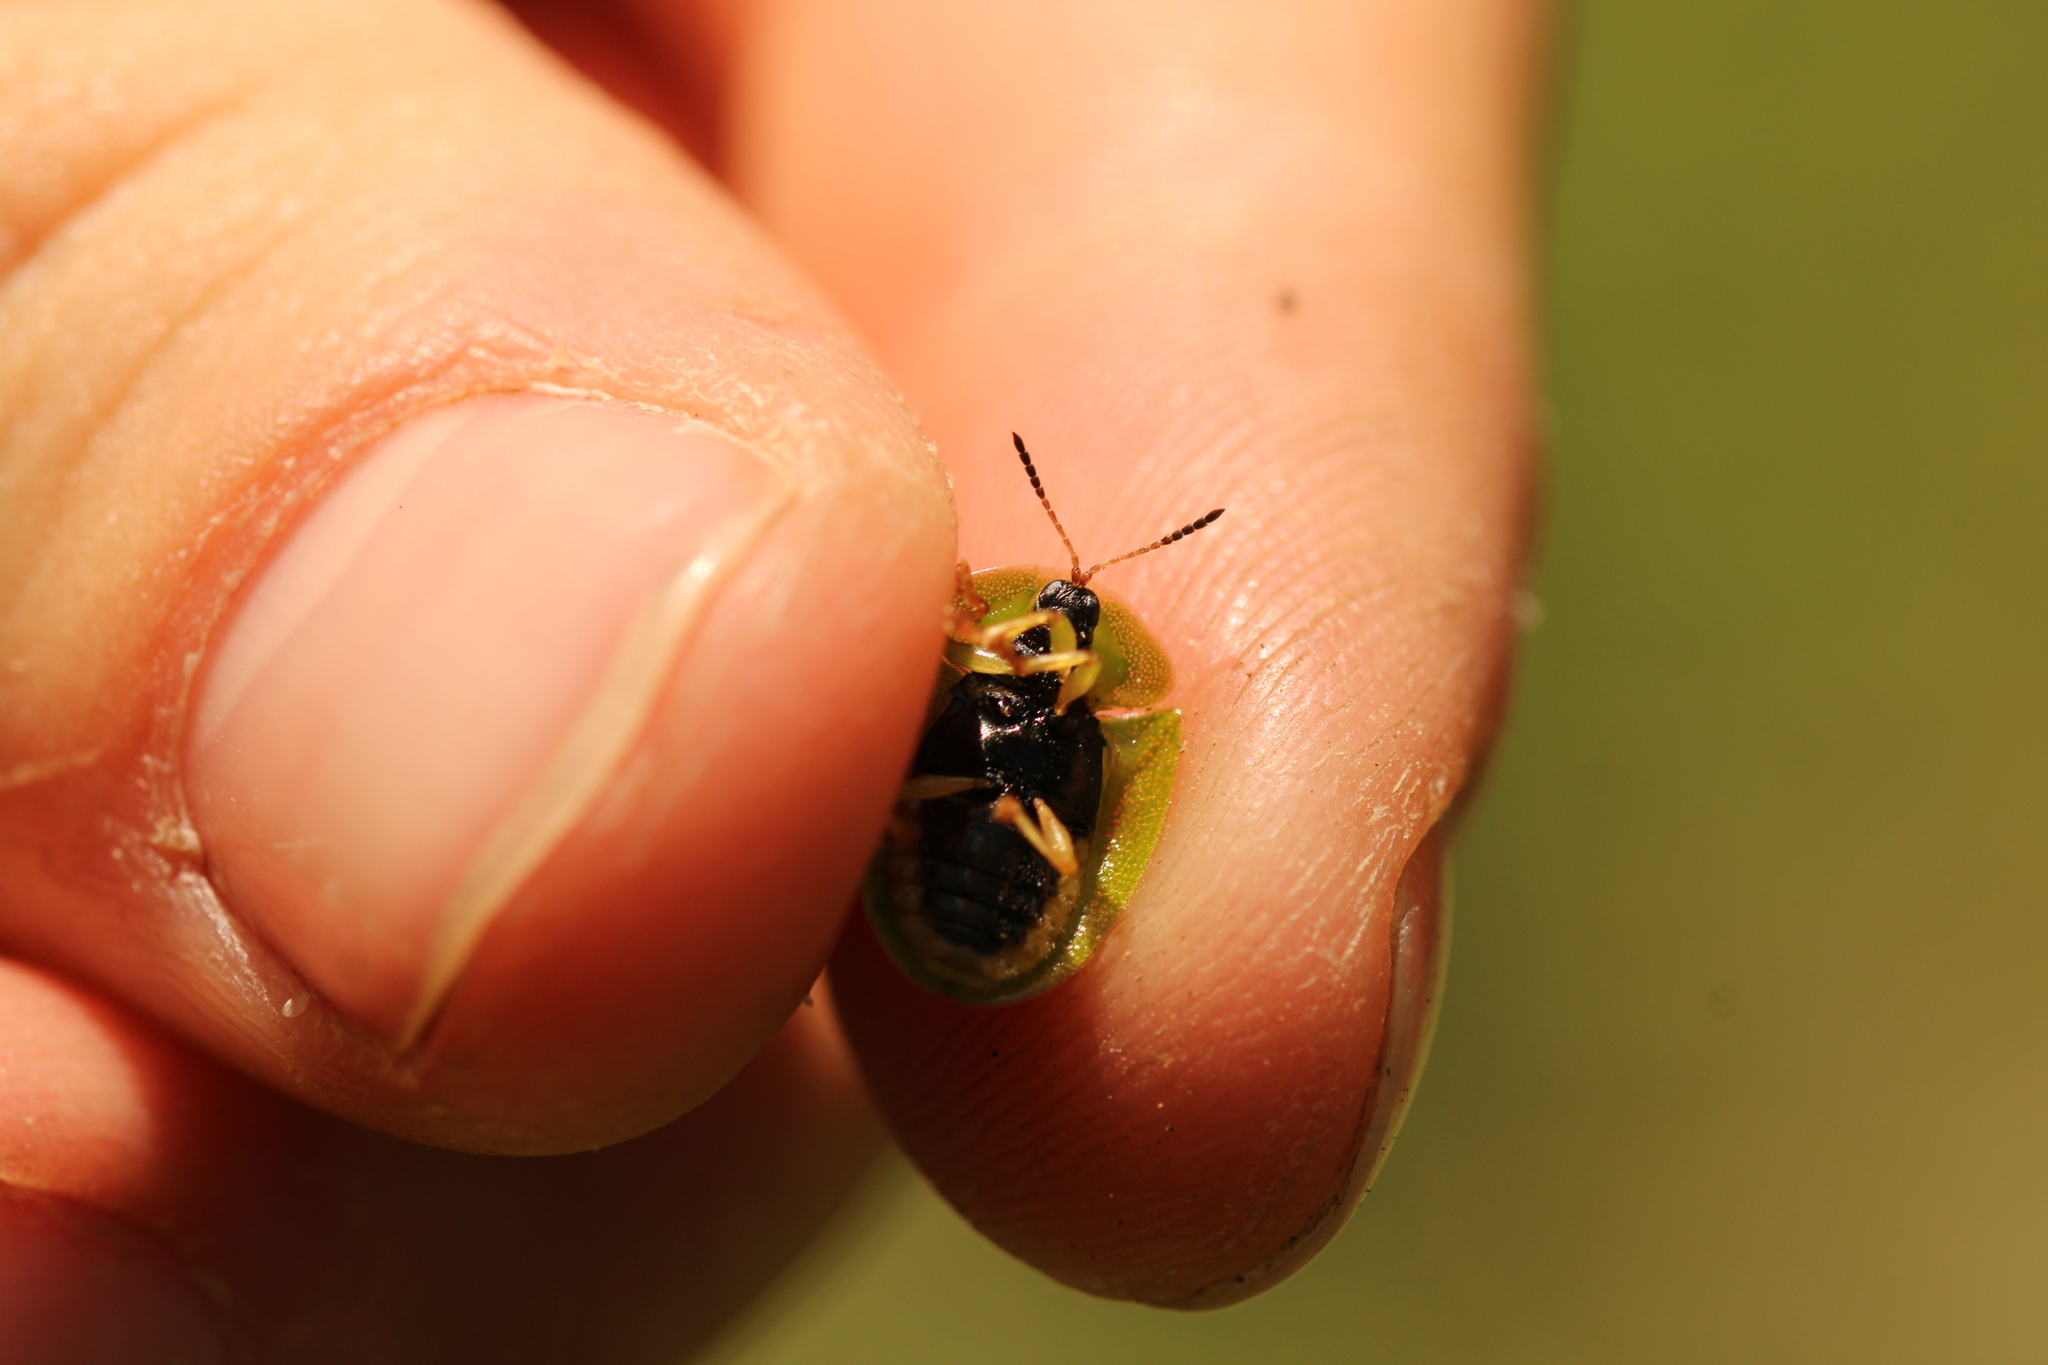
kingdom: Animalia
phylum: Arthropoda
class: Insecta
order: Coleoptera
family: Chrysomelidae
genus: Cassida
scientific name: Cassida viridis
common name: Green tortoise beetle
